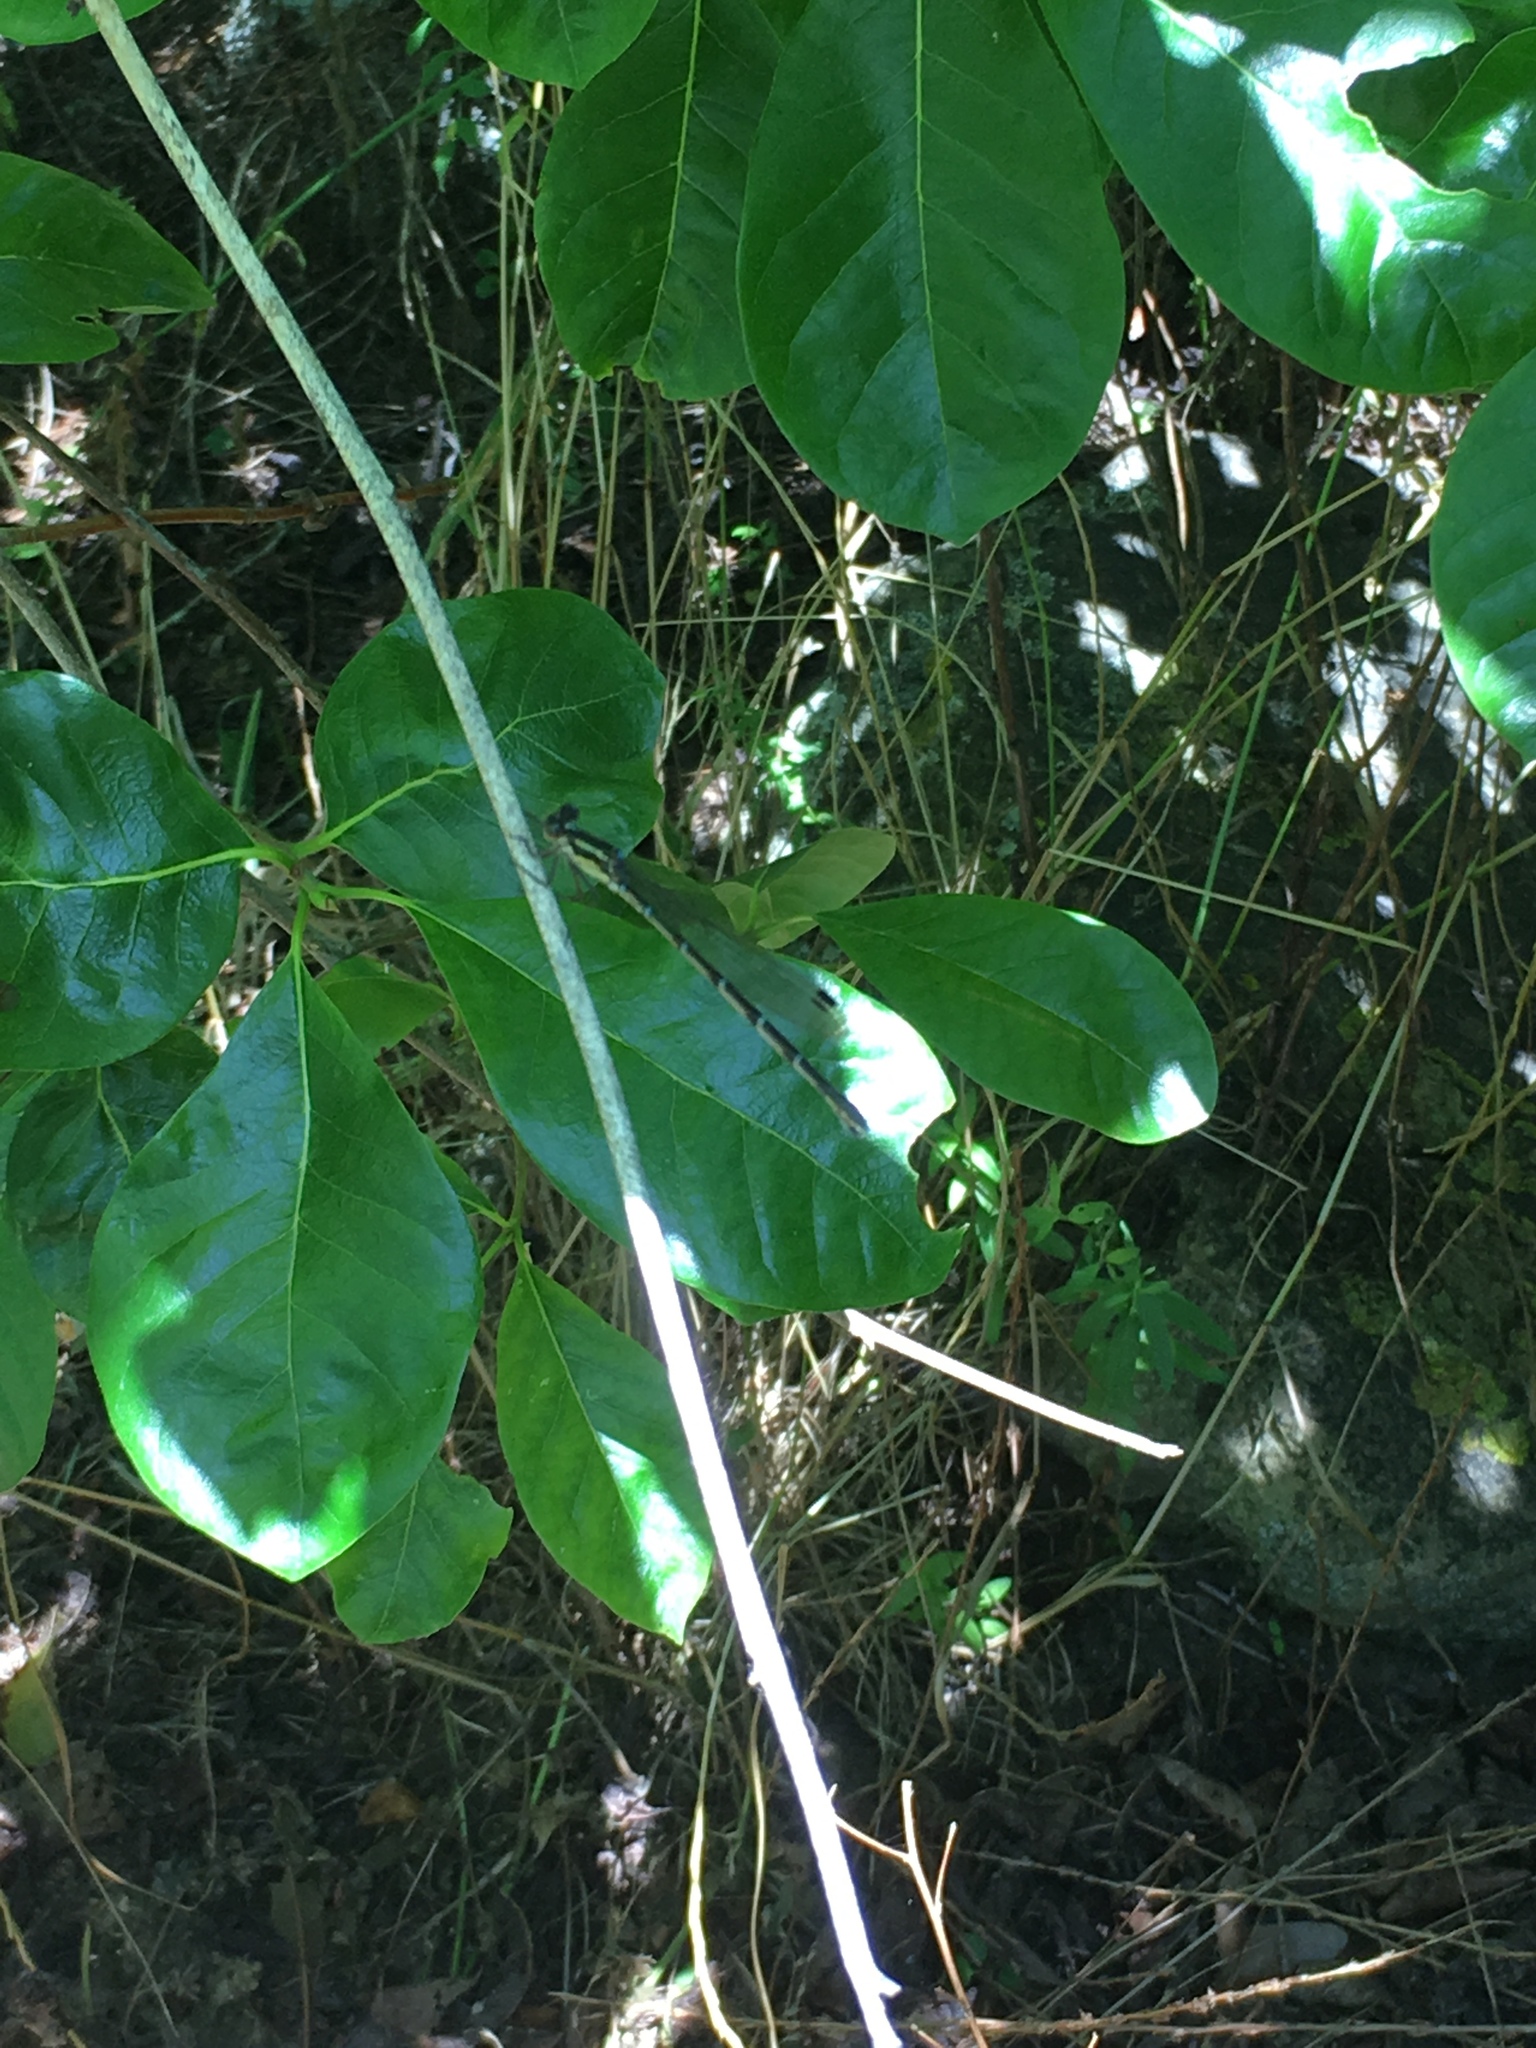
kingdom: Animalia
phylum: Arthropoda
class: Insecta
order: Odonata
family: Lestidae
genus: Austrolestes
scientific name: Austrolestes colensonis
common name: Blue damselfly
